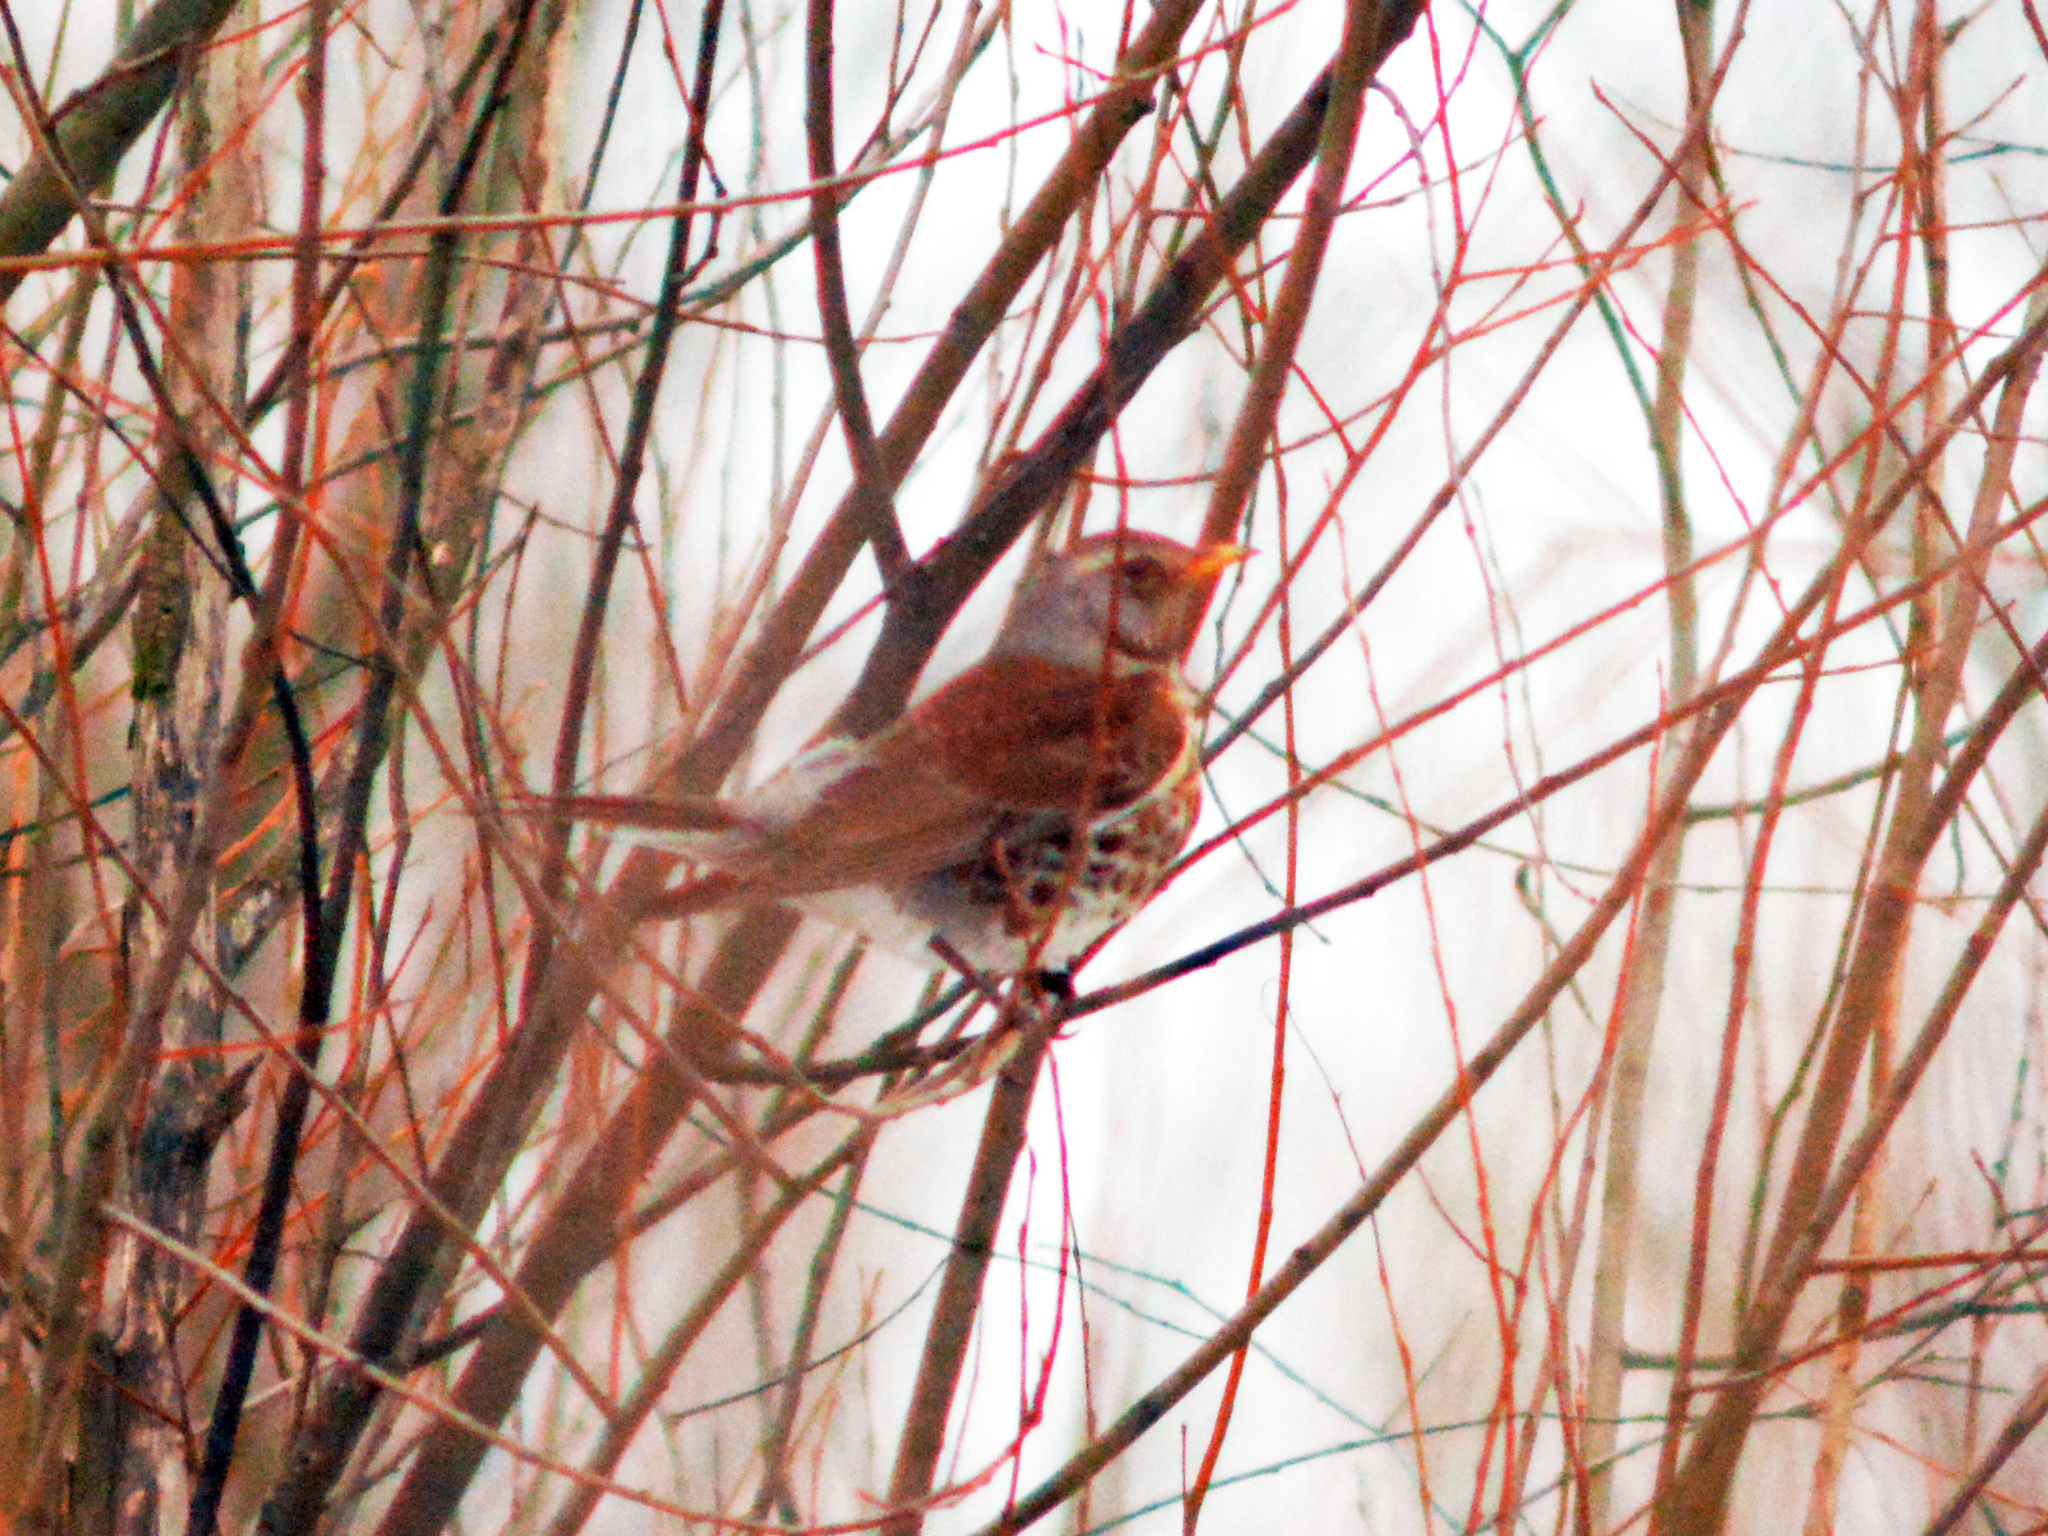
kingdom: Animalia
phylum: Chordata
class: Aves
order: Passeriformes
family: Turdidae
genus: Turdus
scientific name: Turdus pilaris
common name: Fieldfare
